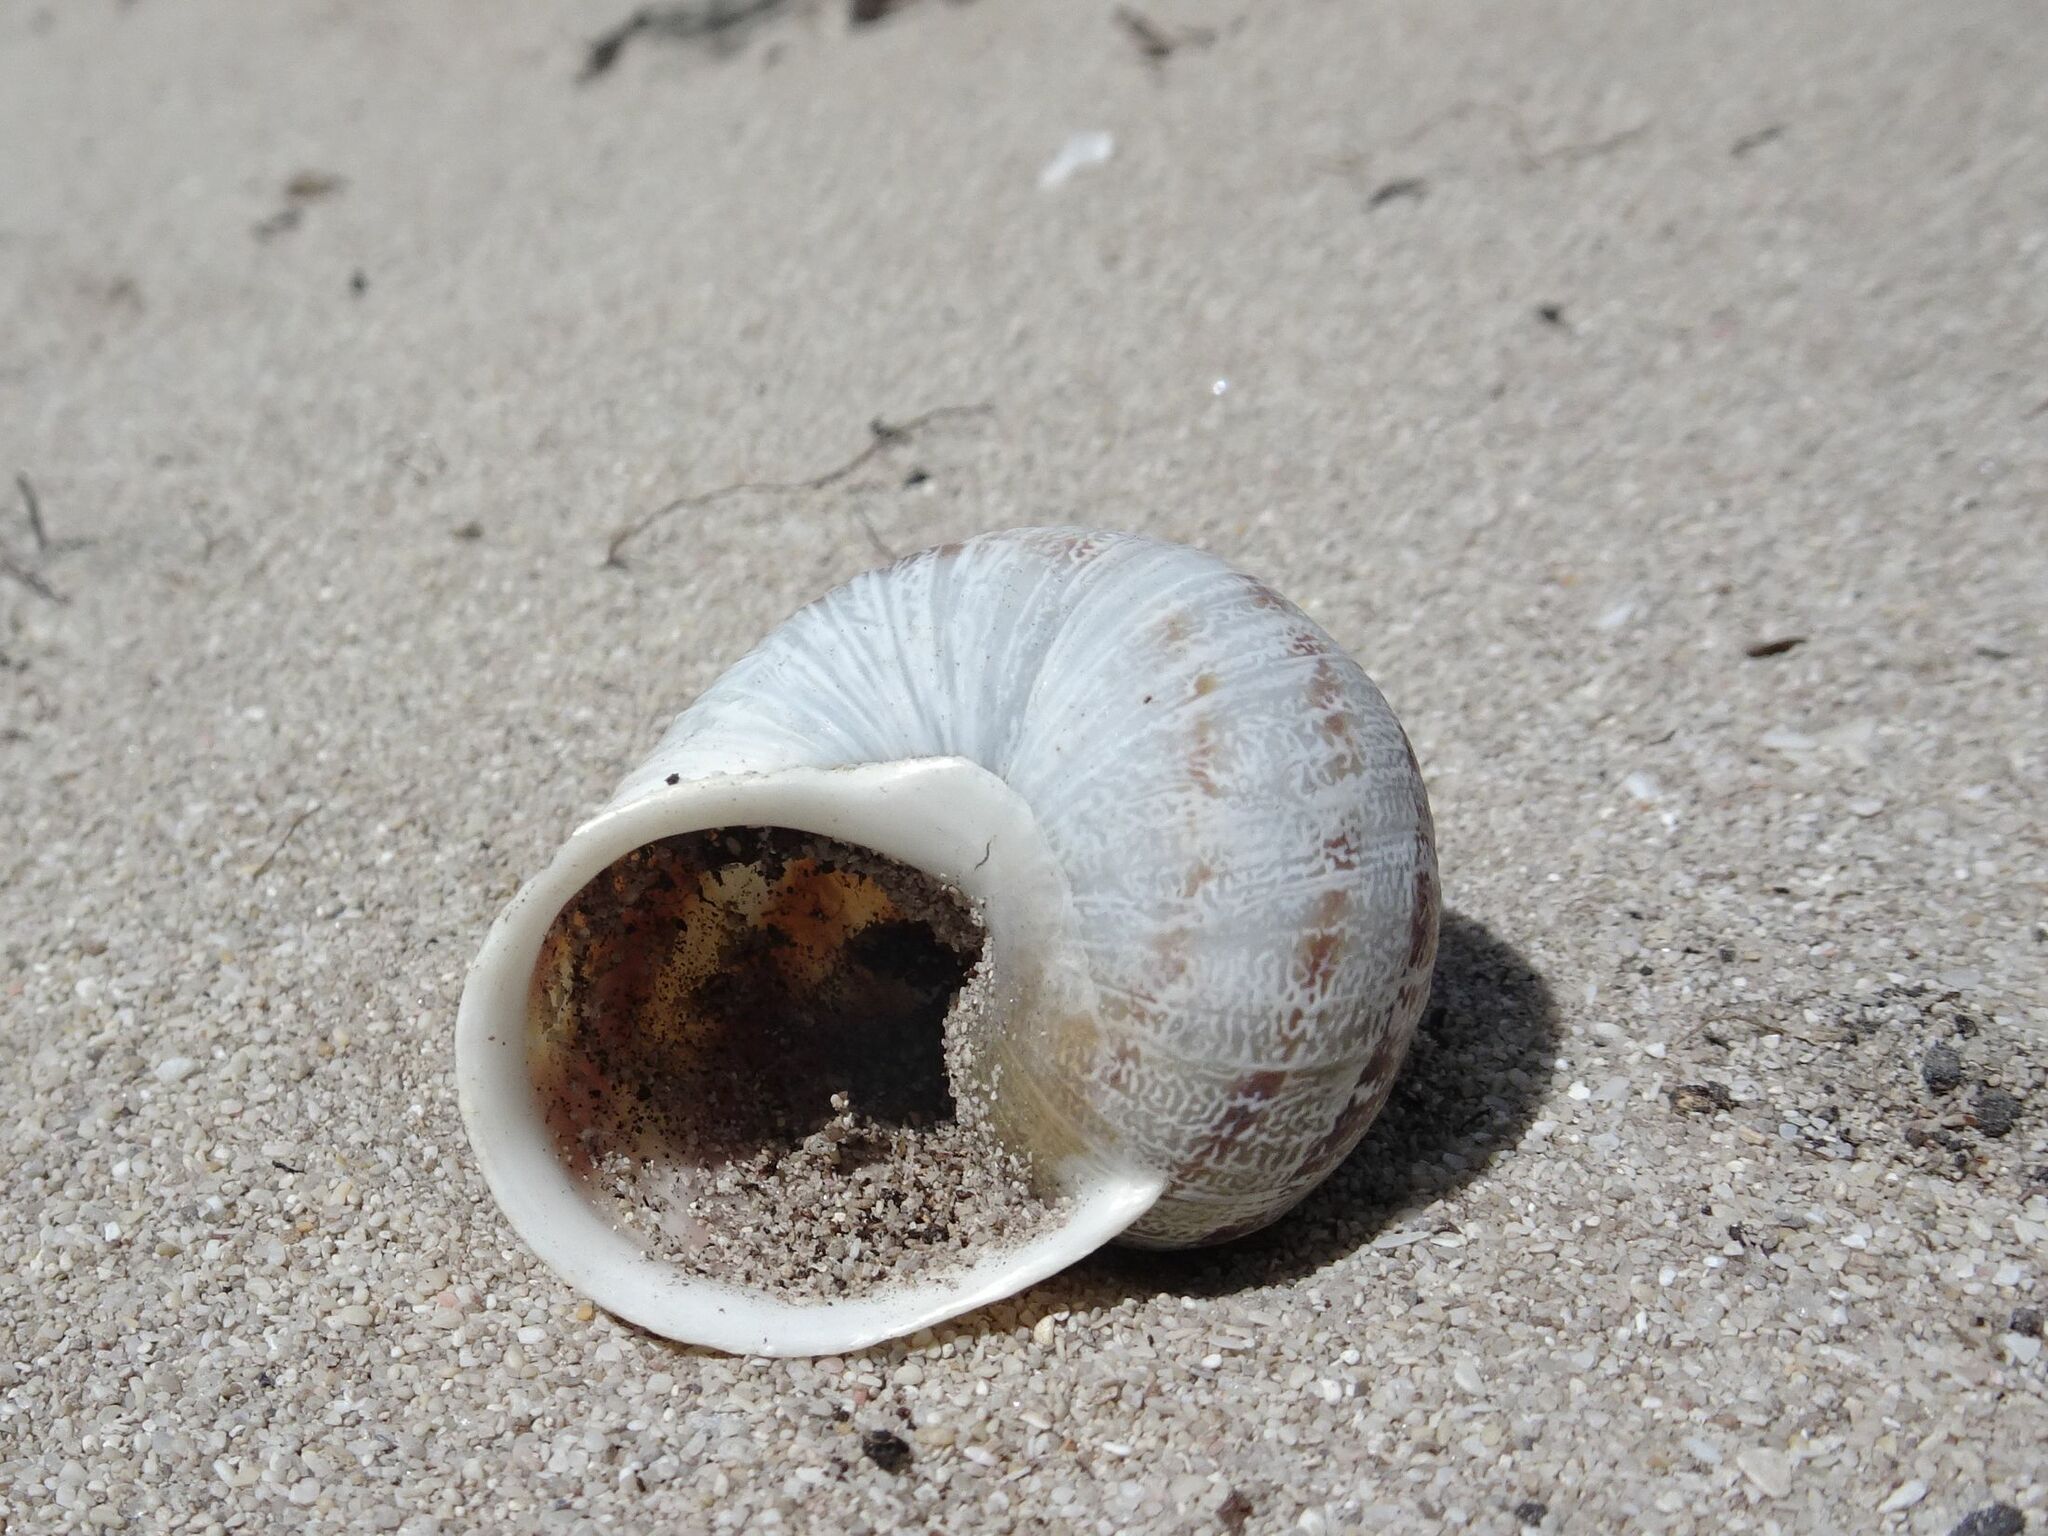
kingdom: Animalia
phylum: Mollusca
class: Gastropoda
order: Stylommatophora
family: Helicidae
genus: Cornu
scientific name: Cornu aspersum
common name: Brown garden snail
